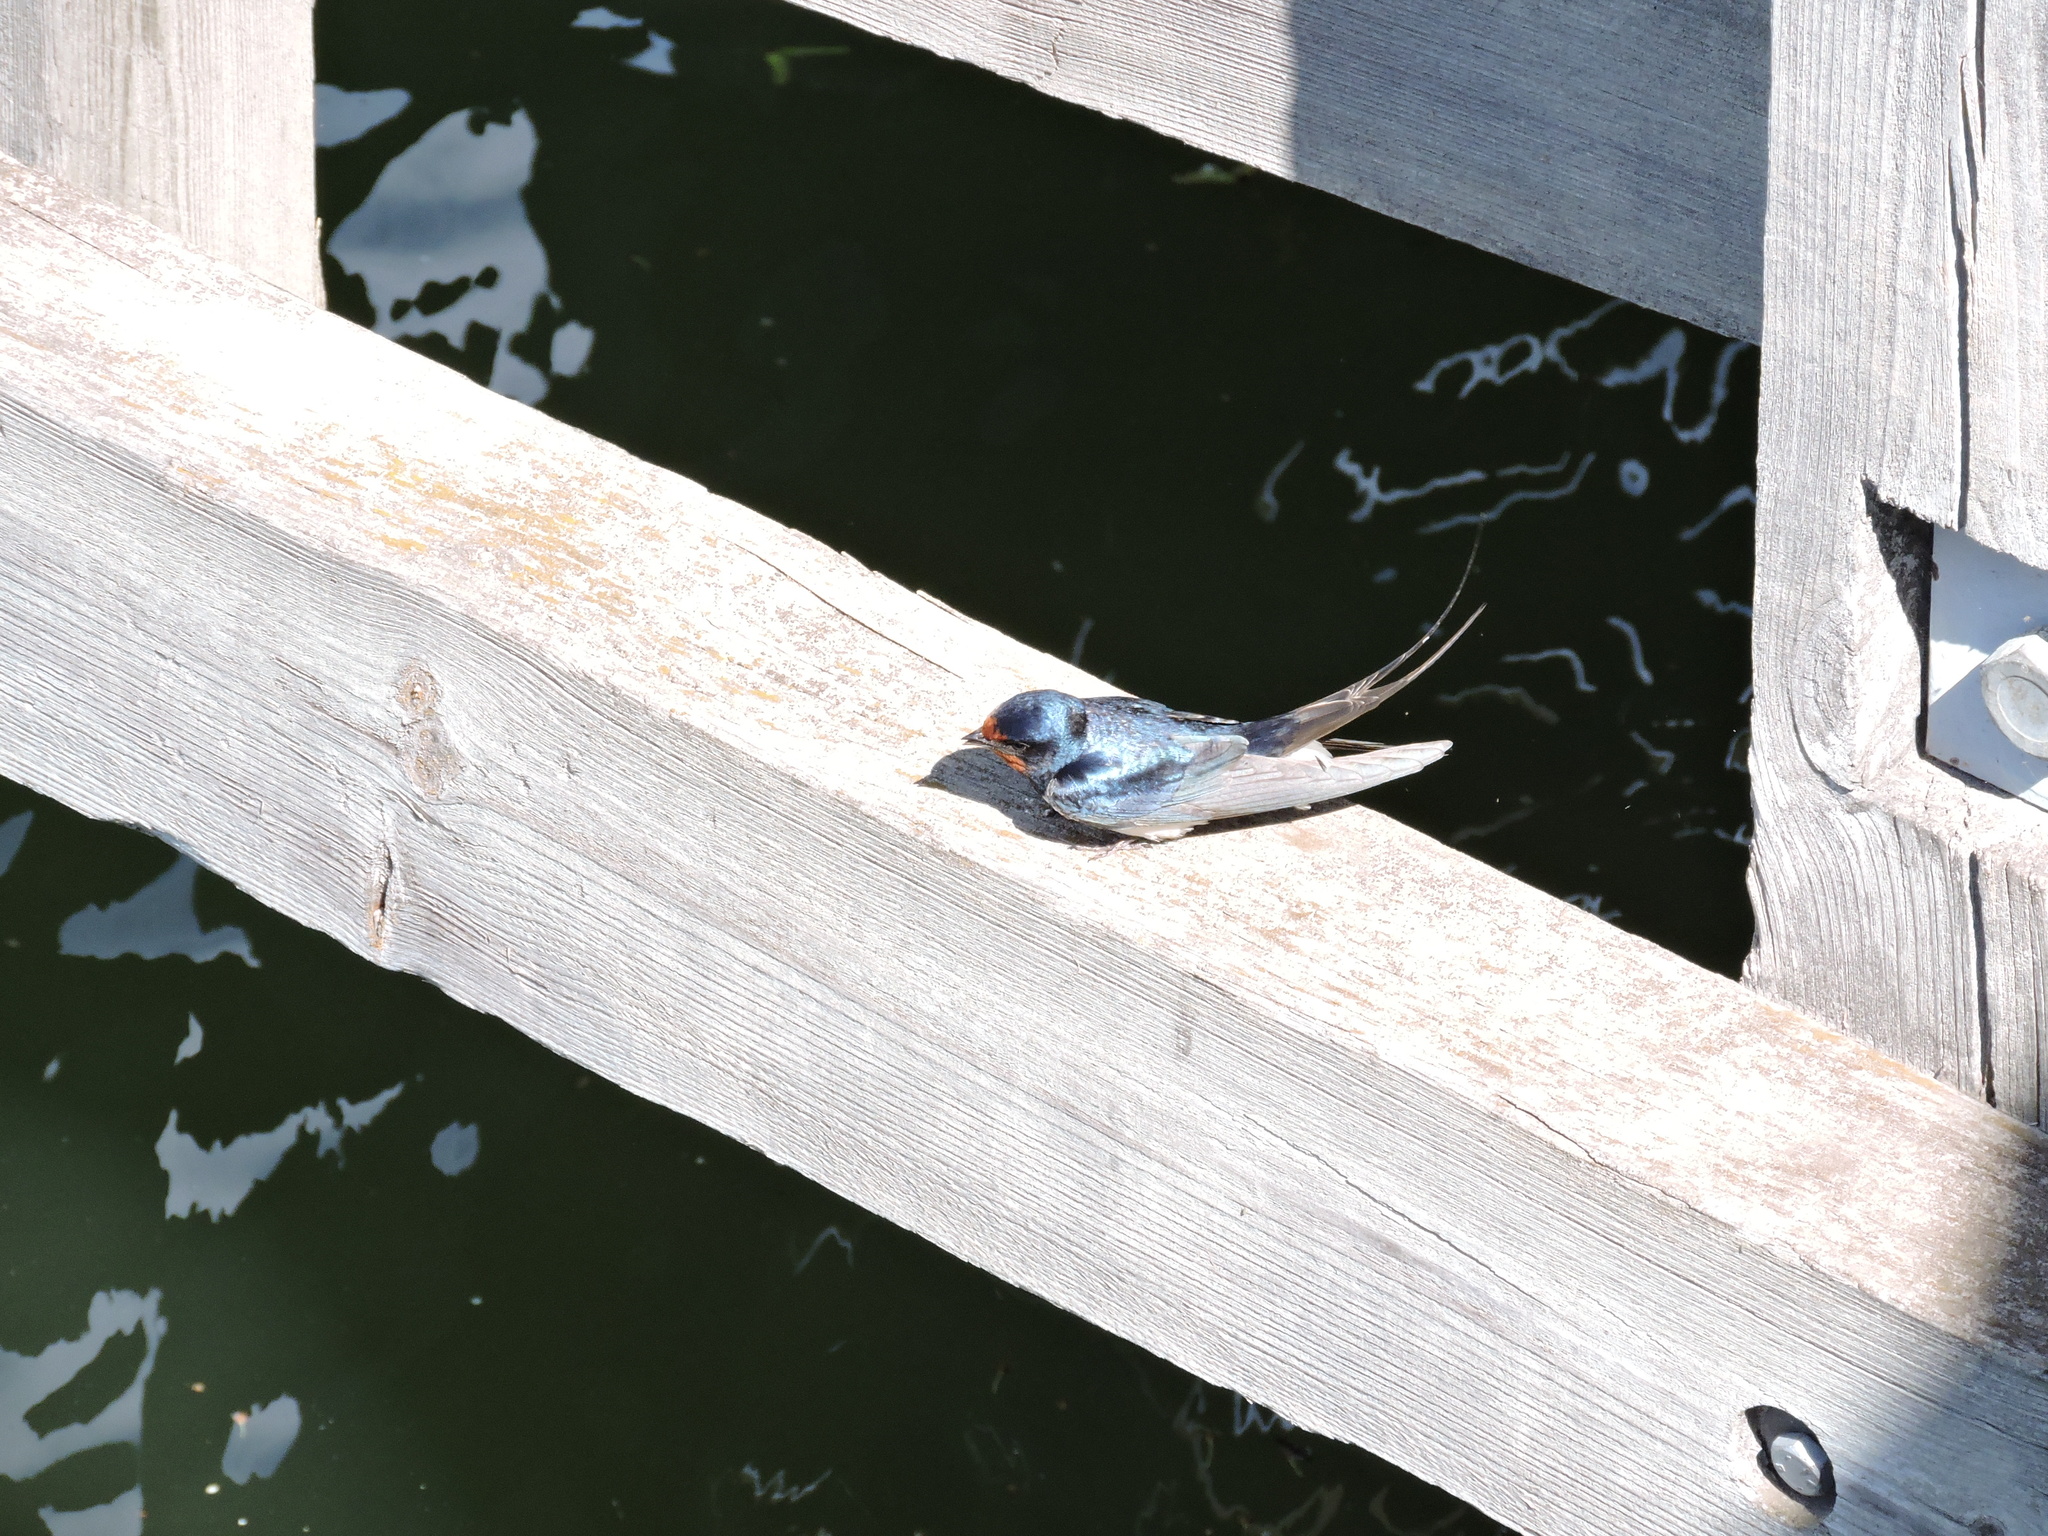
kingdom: Animalia
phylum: Chordata
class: Aves
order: Passeriformes
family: Hirundinidae
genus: Hirundo
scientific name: Hirundo rustica
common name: Barn swallow
